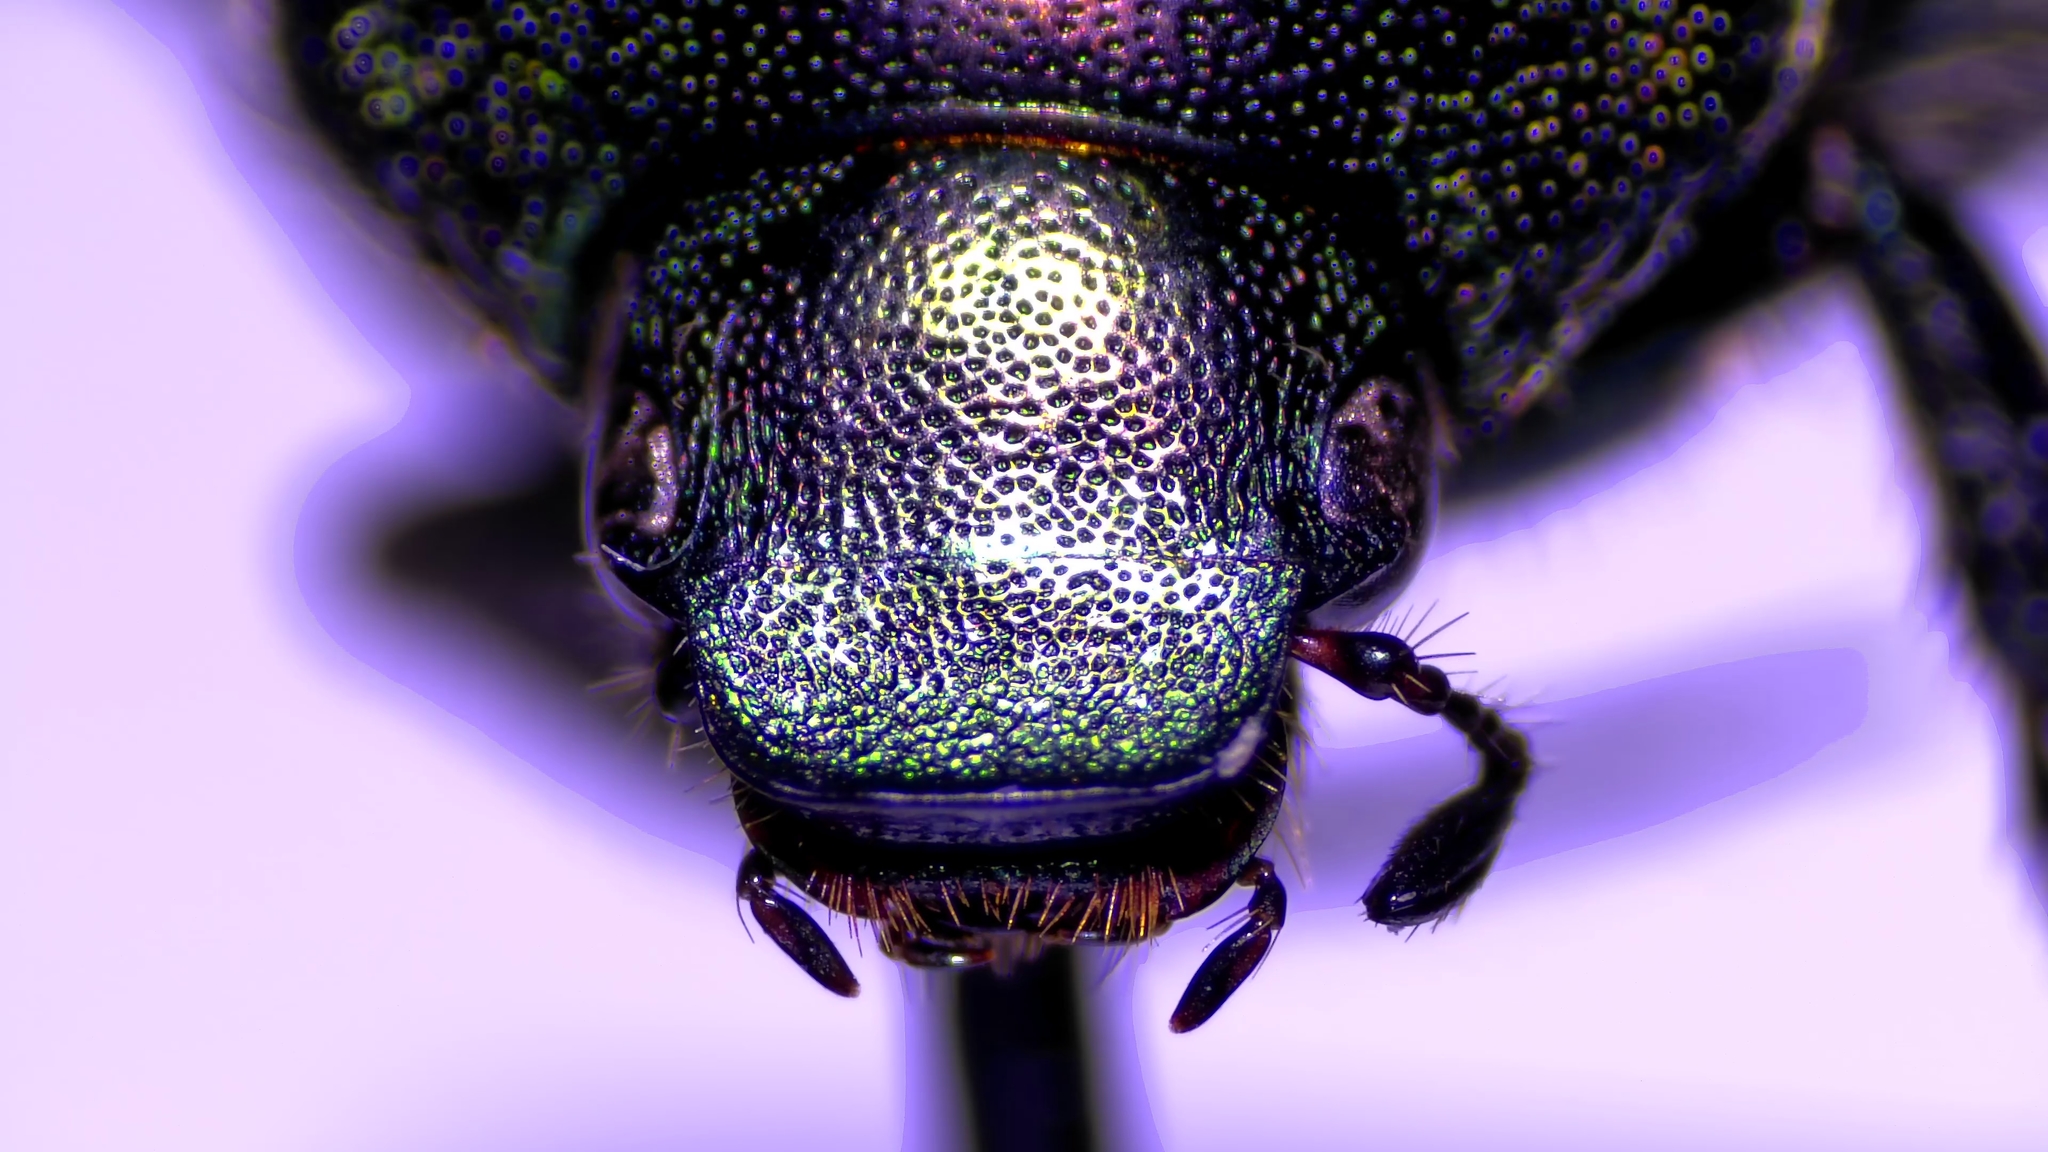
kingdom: Animalia
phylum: Arthropoda
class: Insecta
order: Coleoptera
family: Scarabaeidae
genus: Popillia
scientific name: Popillia japonica
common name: Japanese beetle
